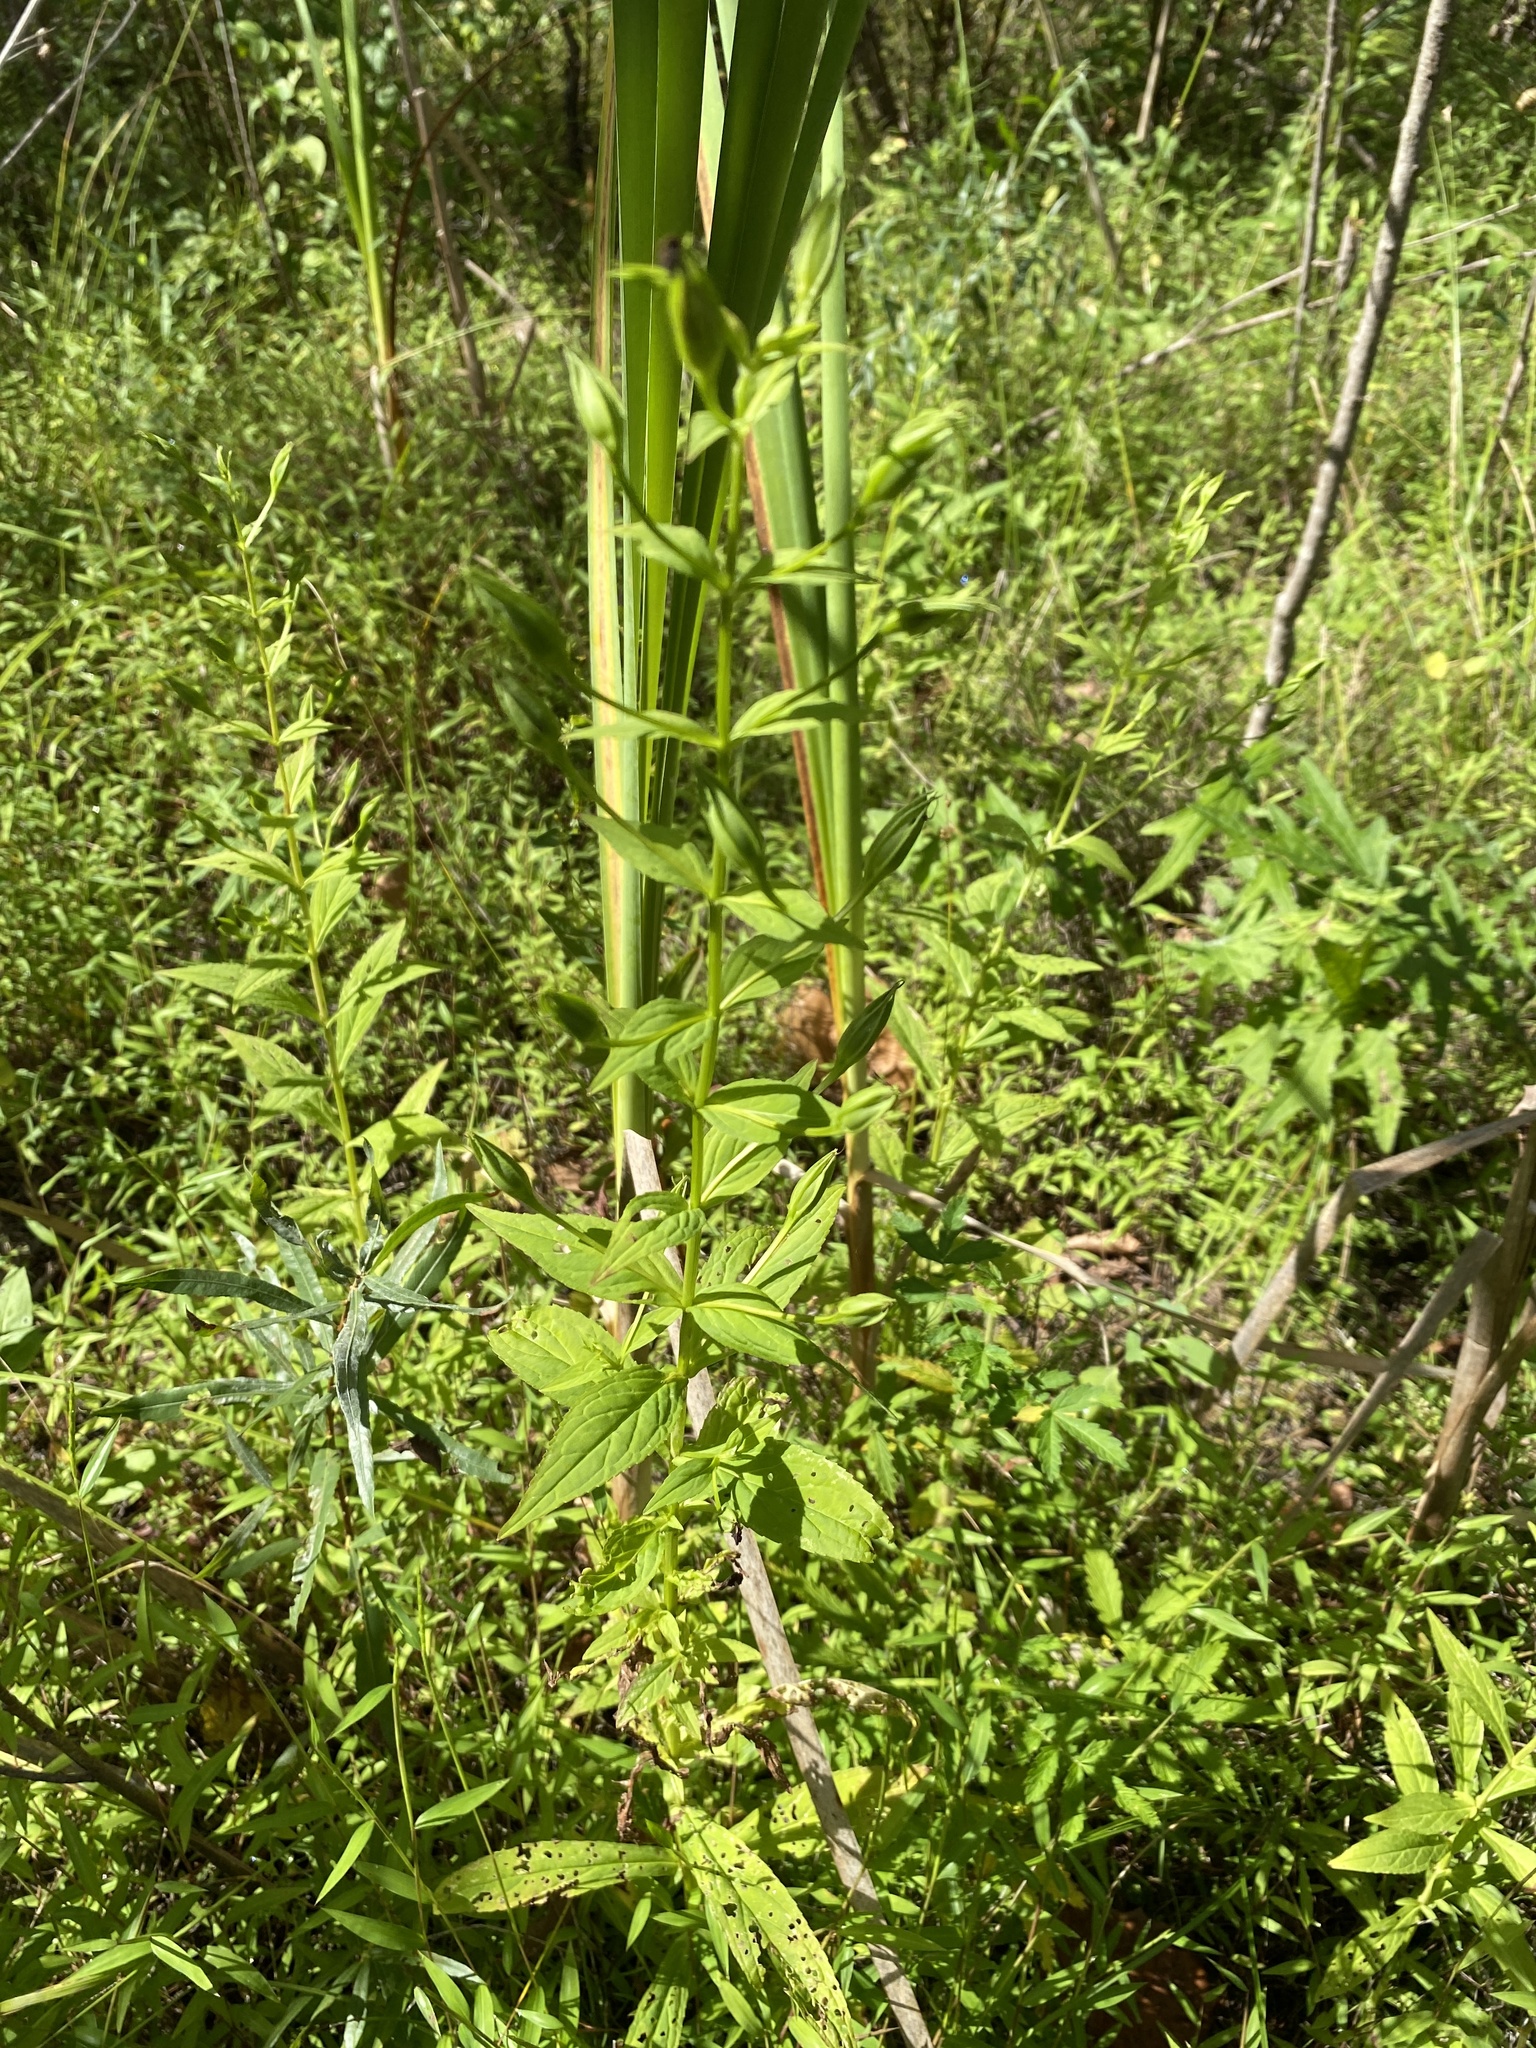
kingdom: Plantae
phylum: Tracheophyta
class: Magnoliopsida
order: Lamiales
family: Phrymaceae
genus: Mimulus
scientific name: Mimulus ringens
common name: Allegheny monkeyflower
